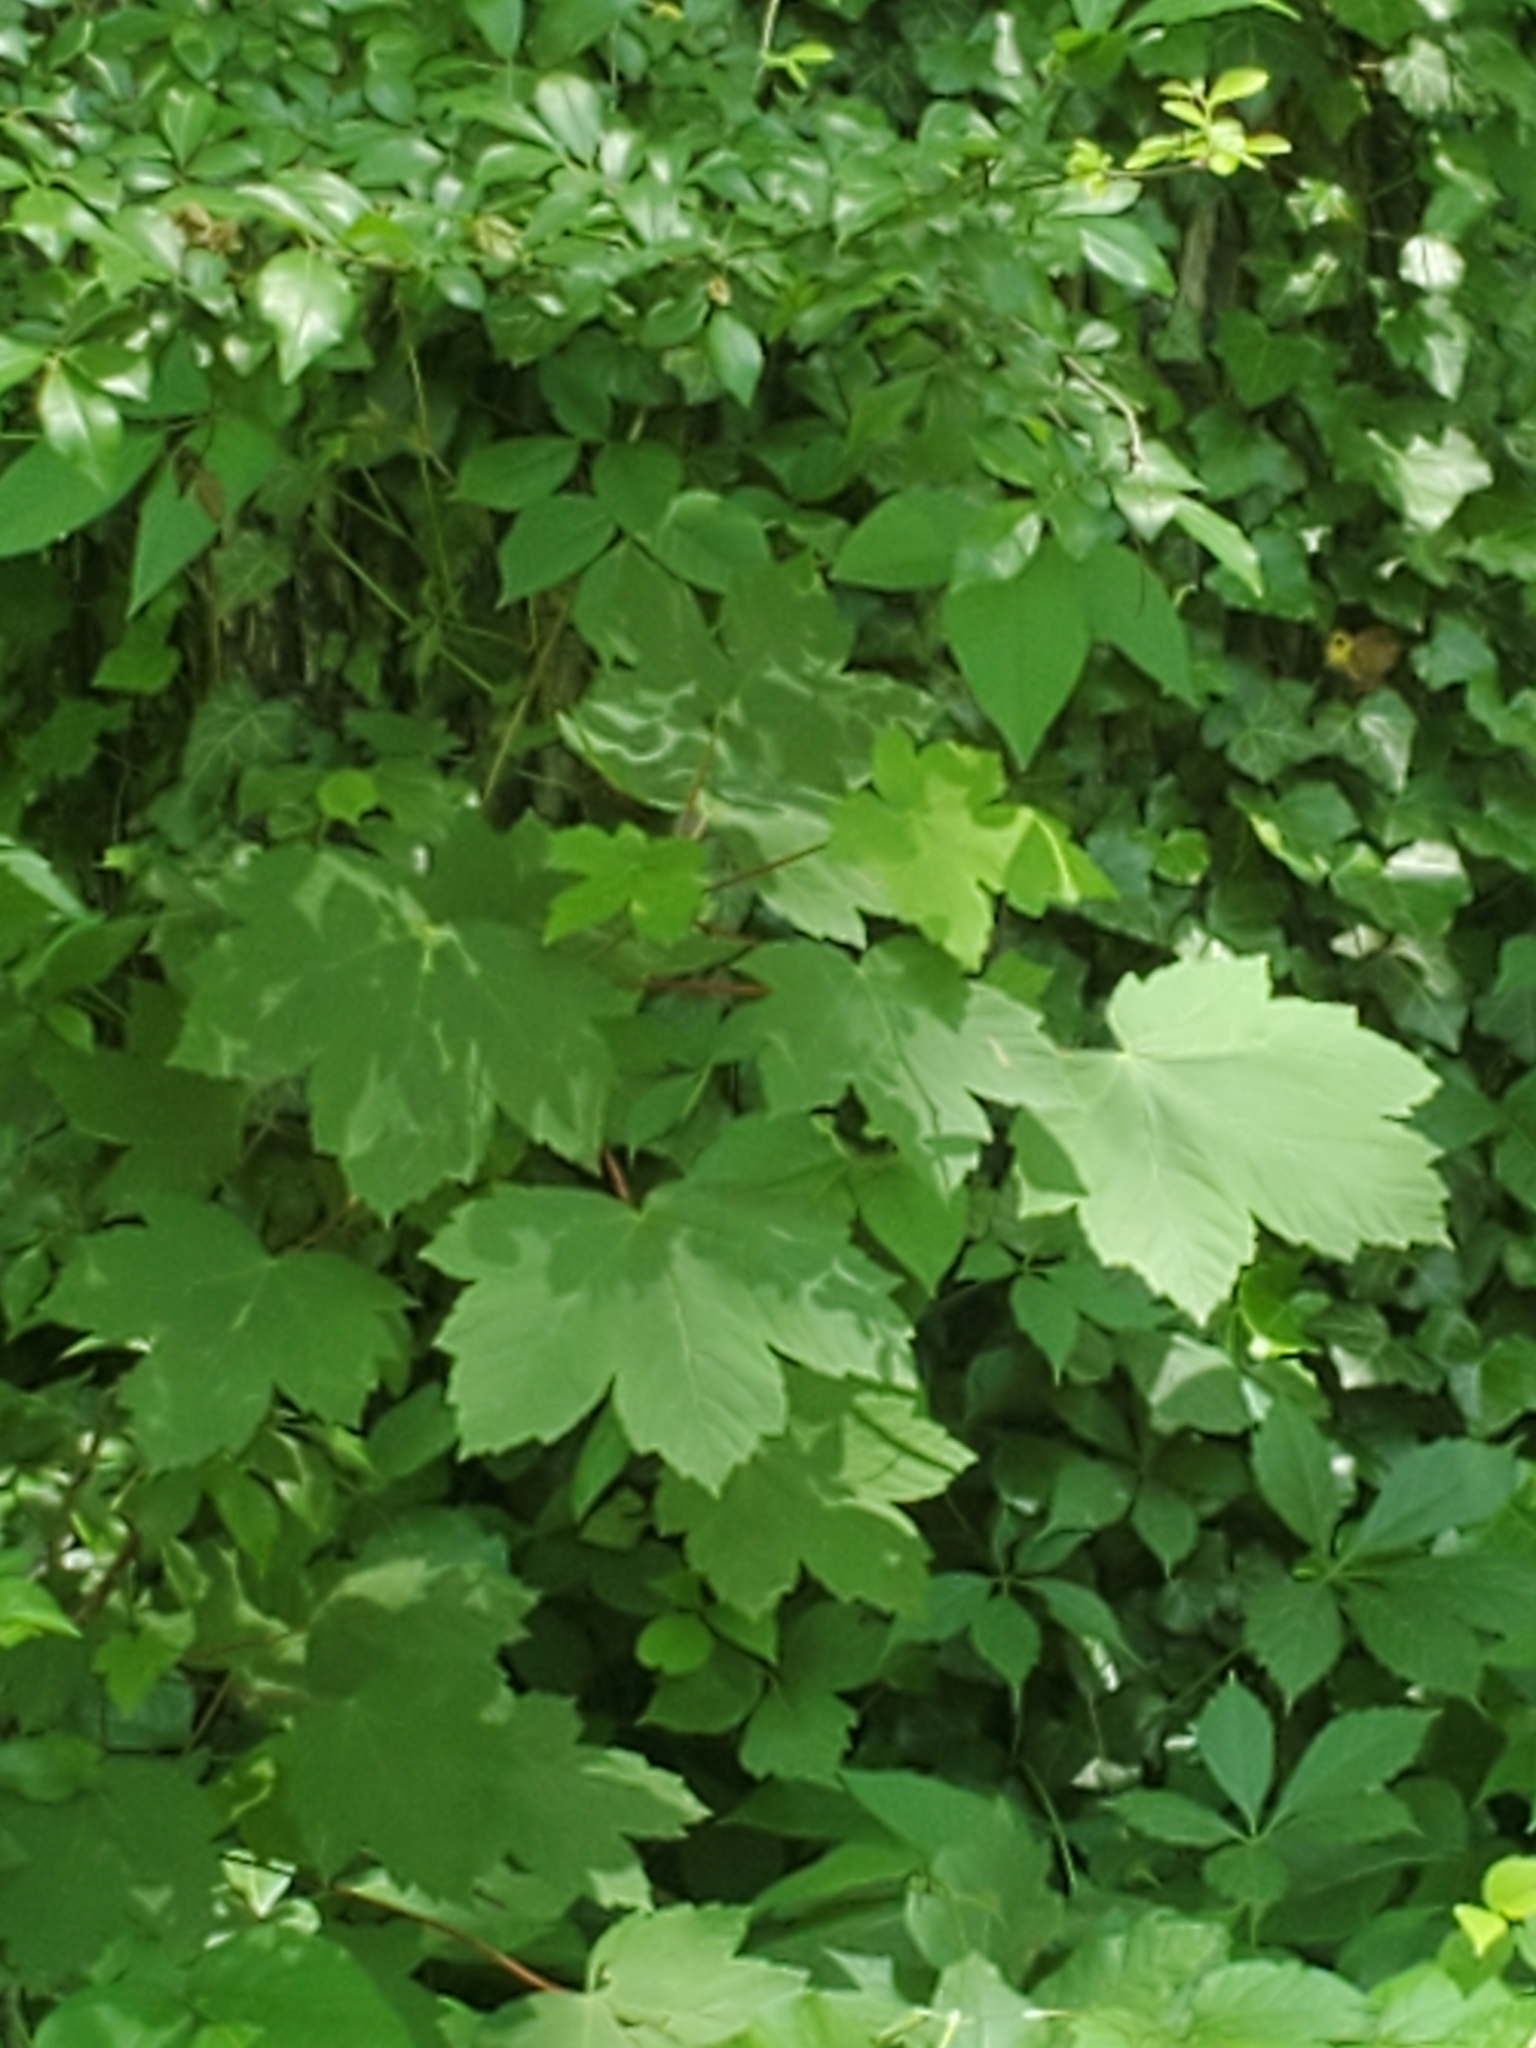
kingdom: Plantae
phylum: Tracheophyta
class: Magnoliopsida
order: Sapindales
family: Sapindaceae
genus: Acer
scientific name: Acer pseudoplatanus
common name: Sycamore
